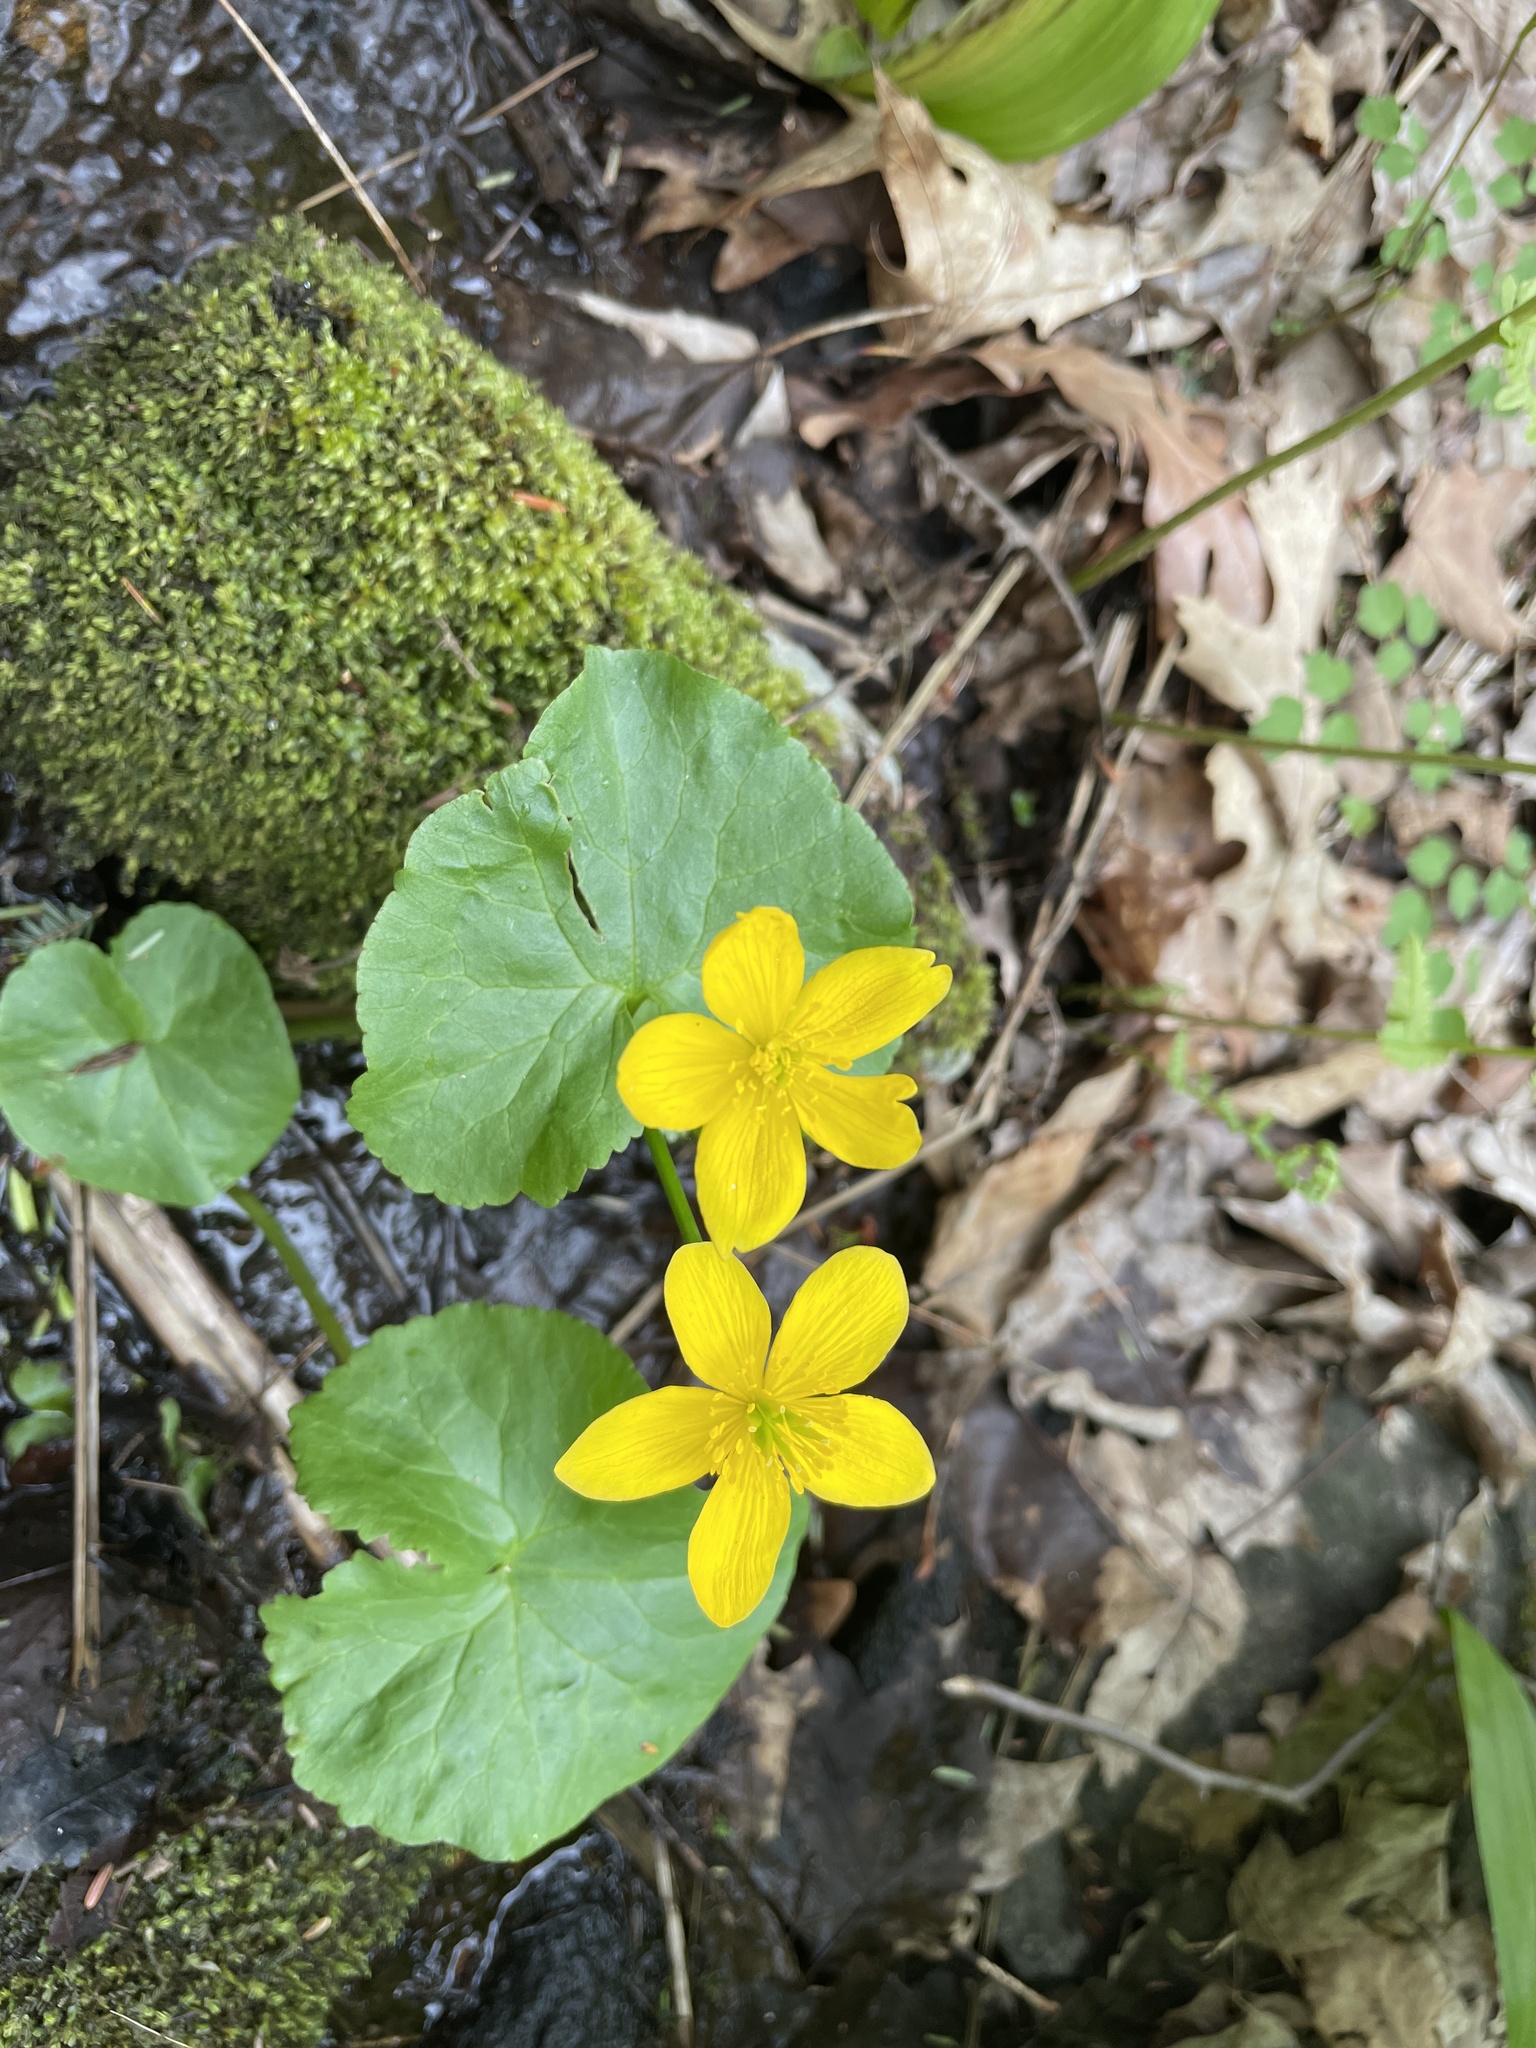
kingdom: Plantae
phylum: Tracheophyta
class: Magnoliopsida
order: Ranunculales
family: Ranunculaceae
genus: Caltha
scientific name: Caltha palustris
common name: Marsh marigold
